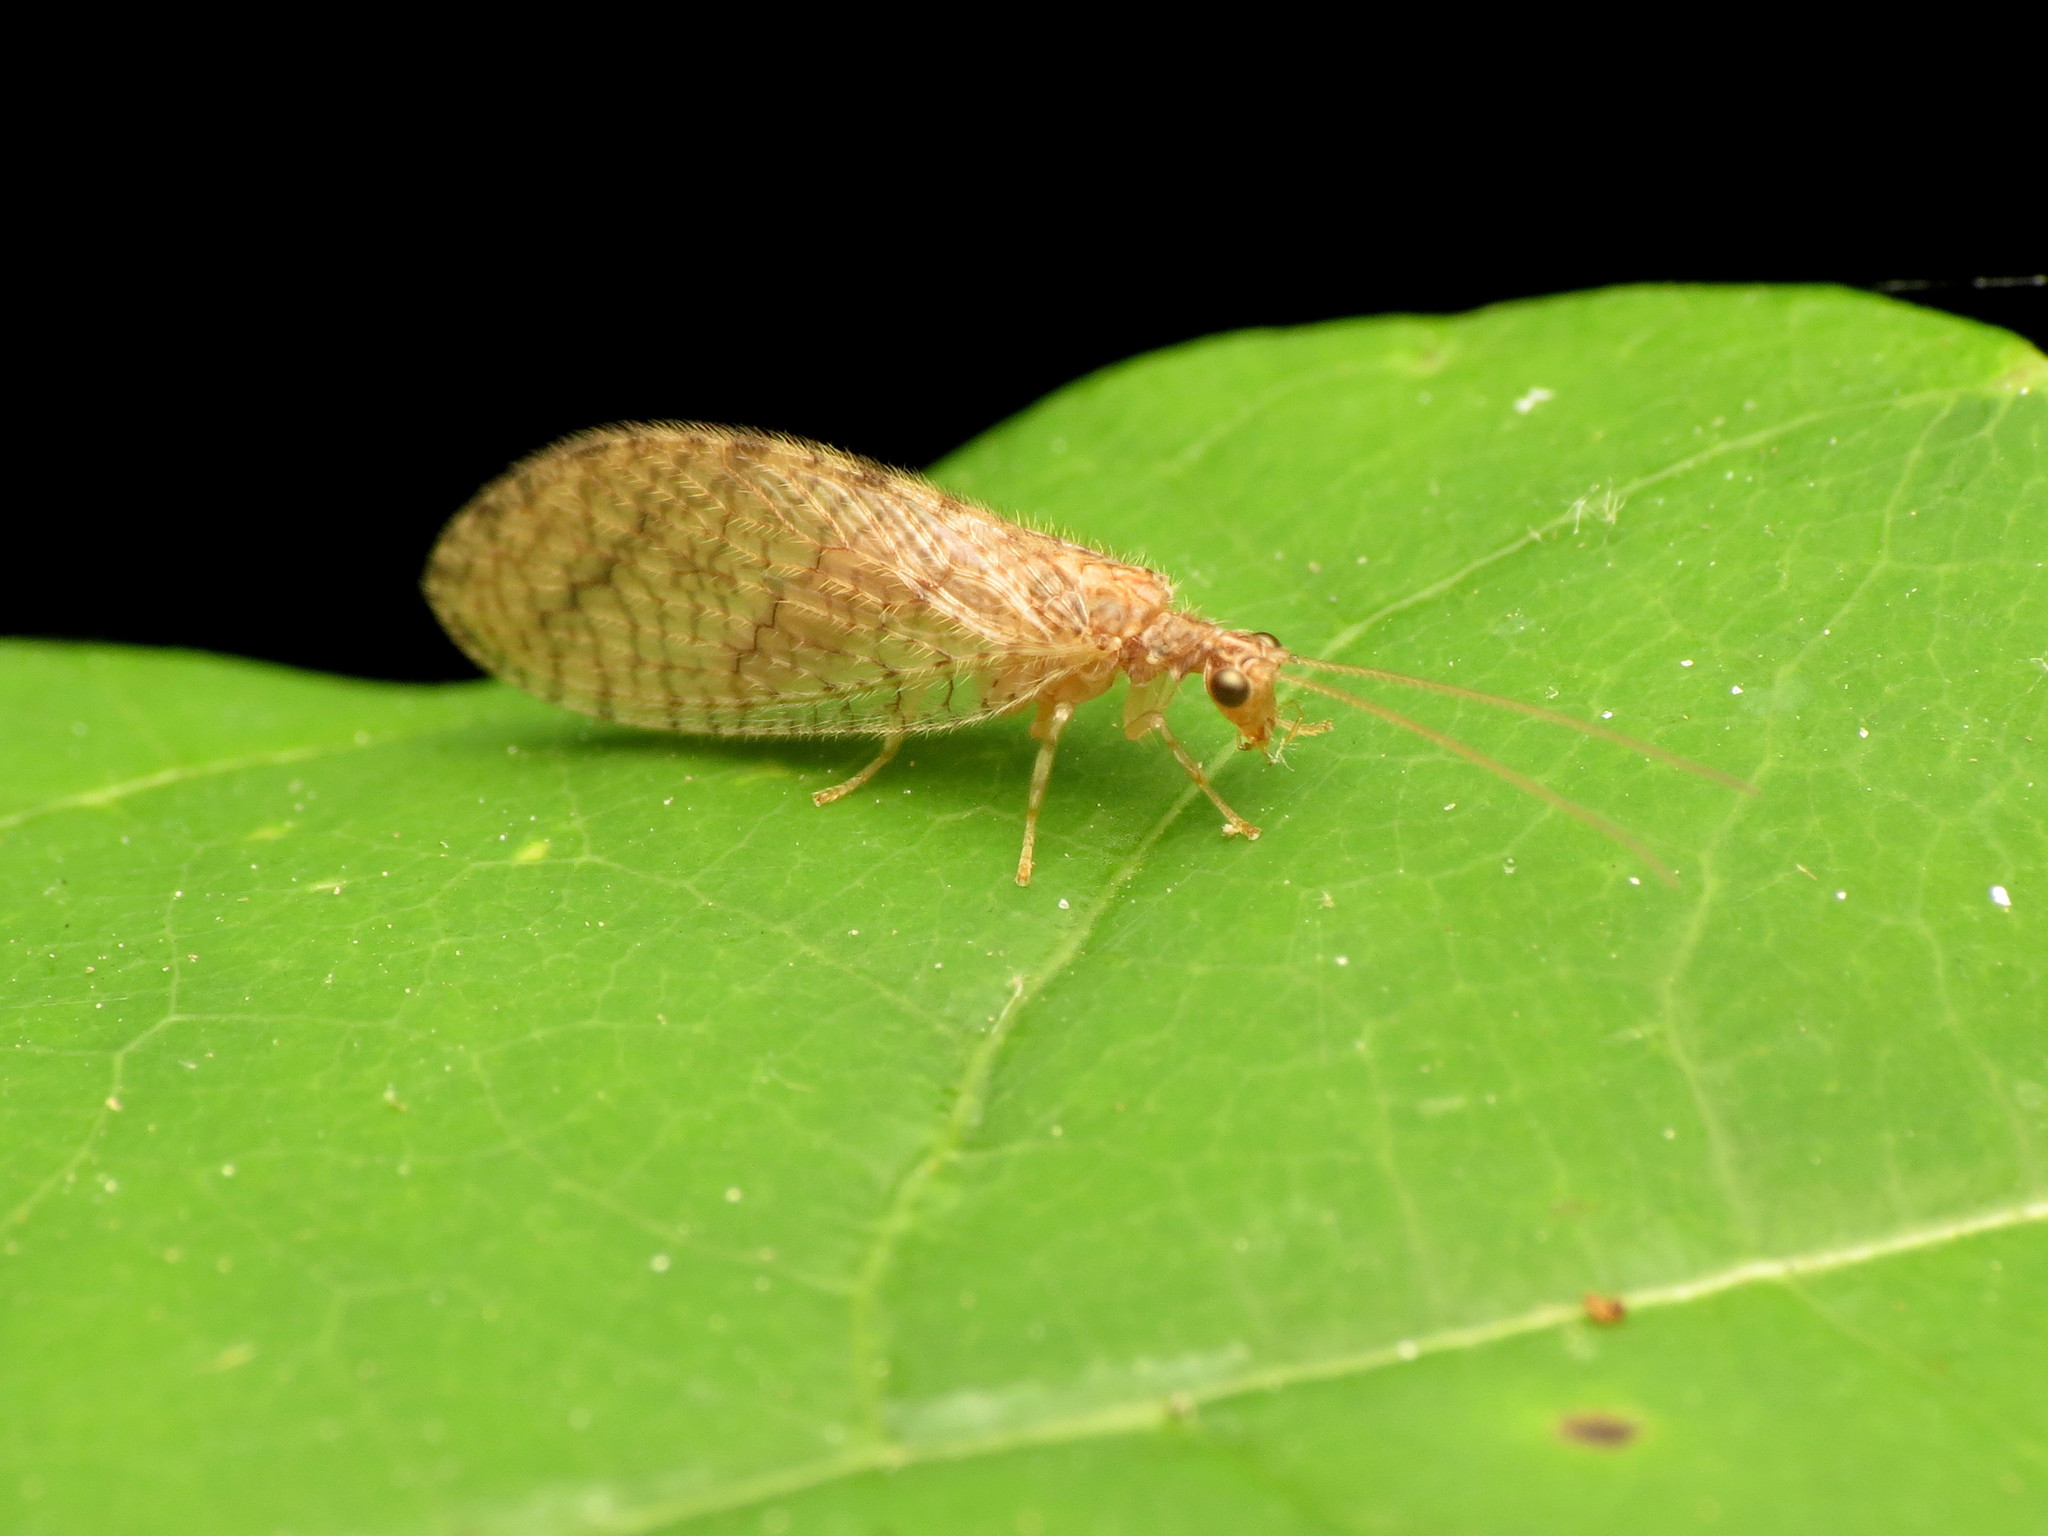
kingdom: Animalia
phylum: Arthropoda
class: Insecta
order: Neuroptera
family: Hemerobiidae
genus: Micromus
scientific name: Micromus posticus
